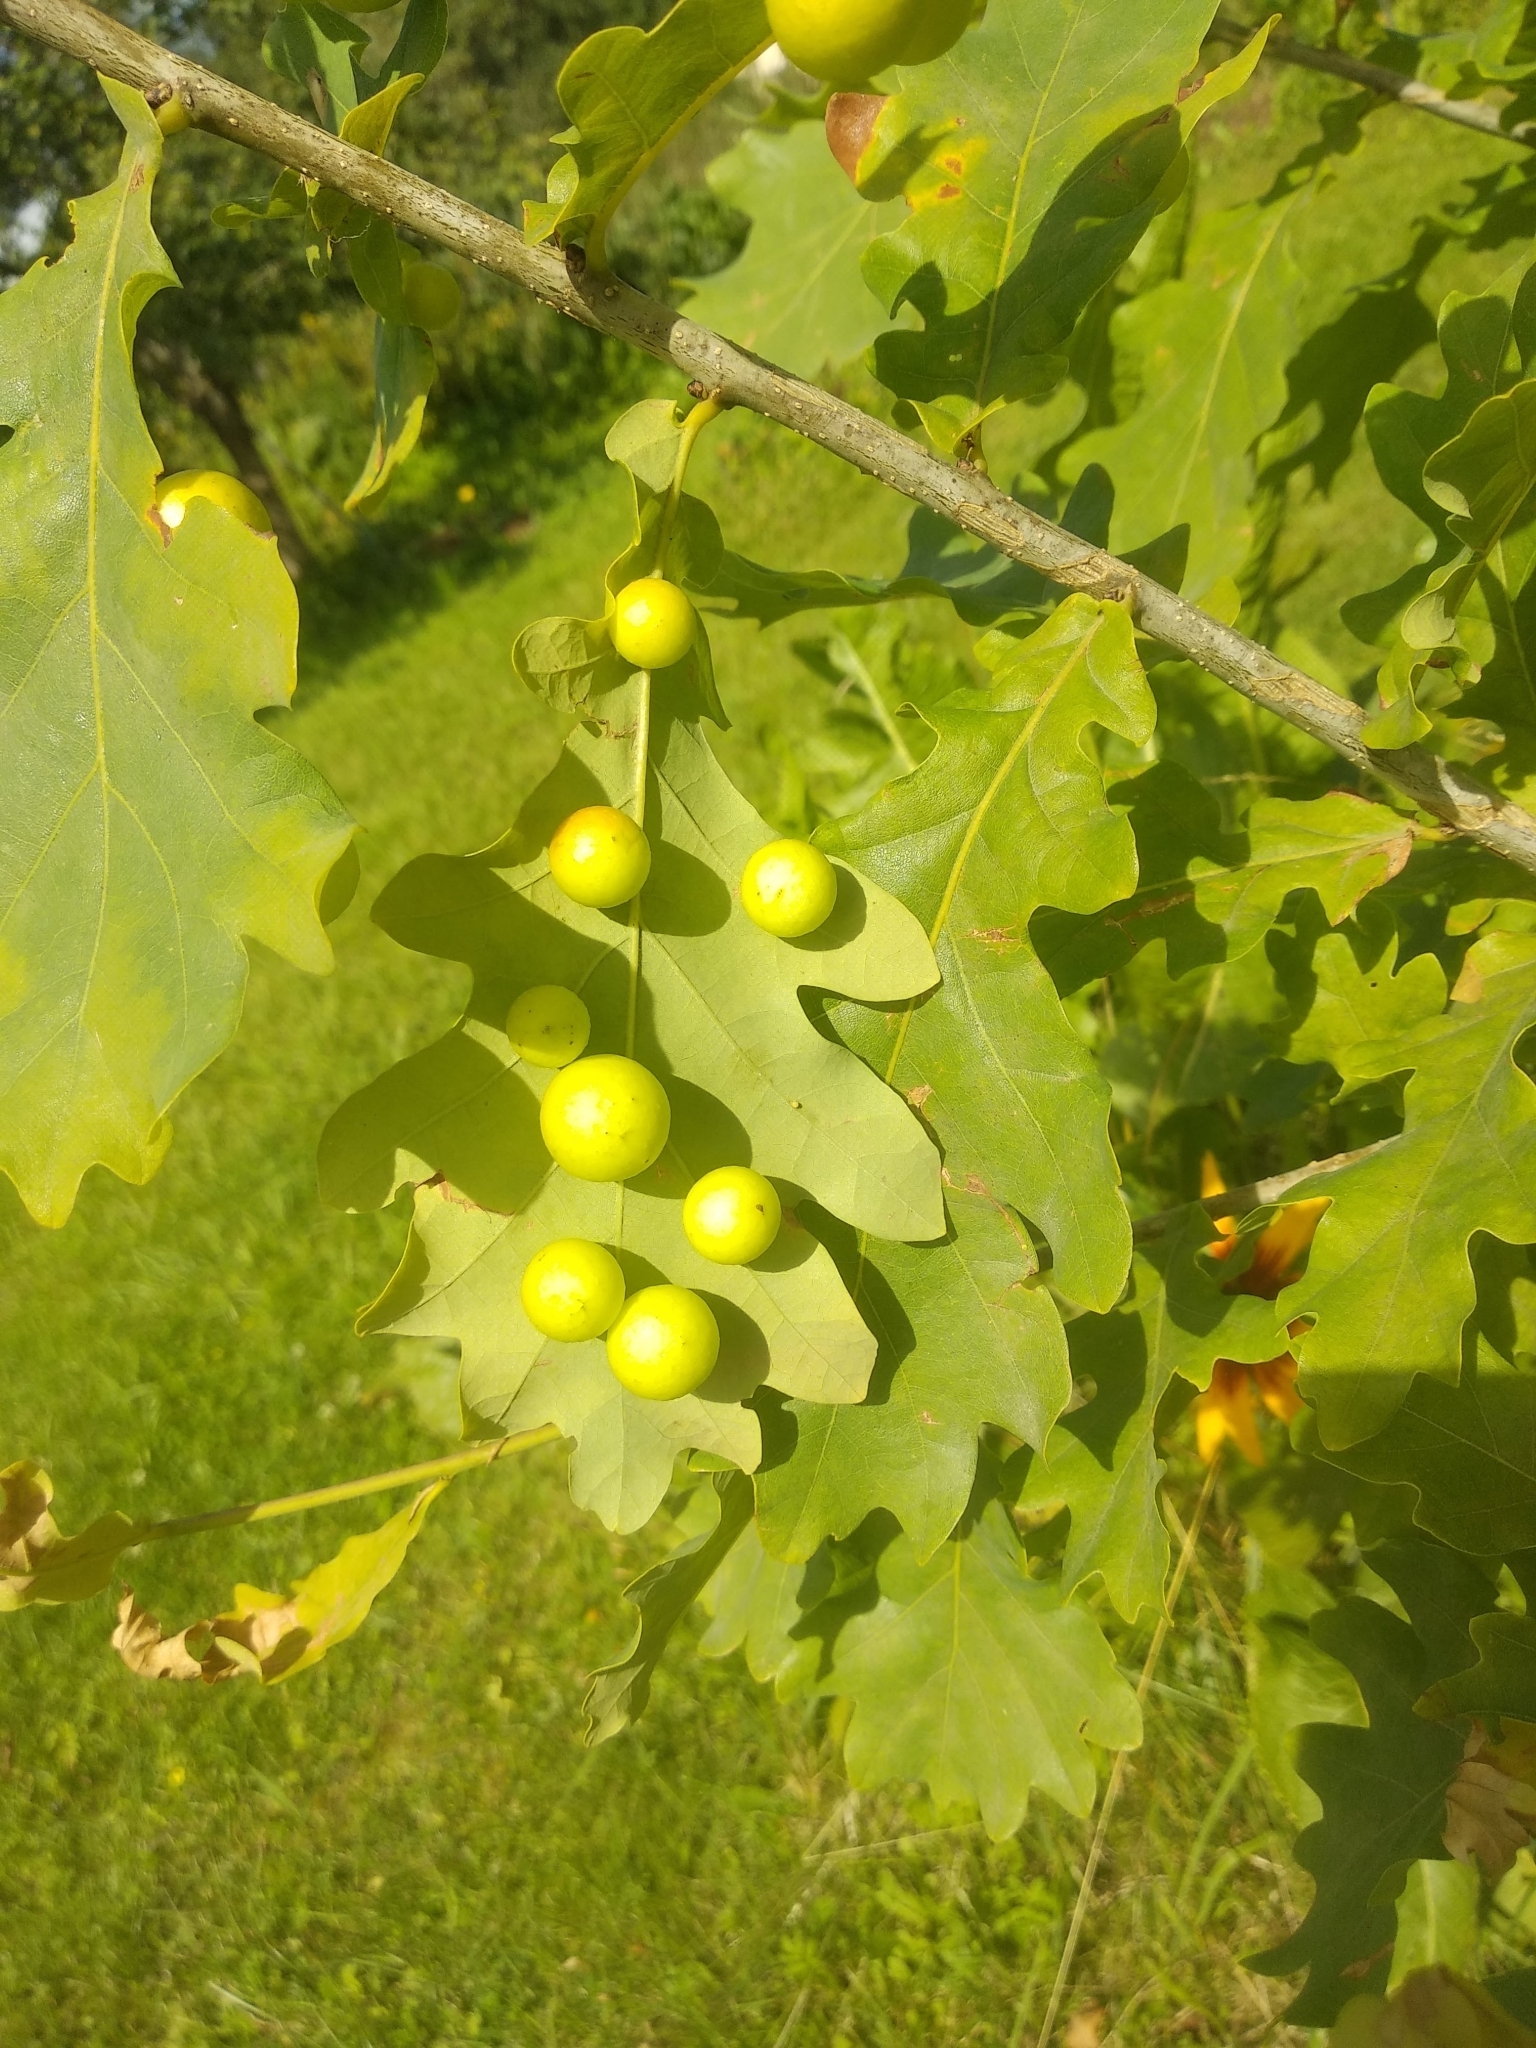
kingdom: Animalia
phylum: Arthropoda
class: Insecta
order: Hymenoptera
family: Cynipidae
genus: Cynips
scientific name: Cynips quercusfolii
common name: Cherry gall
